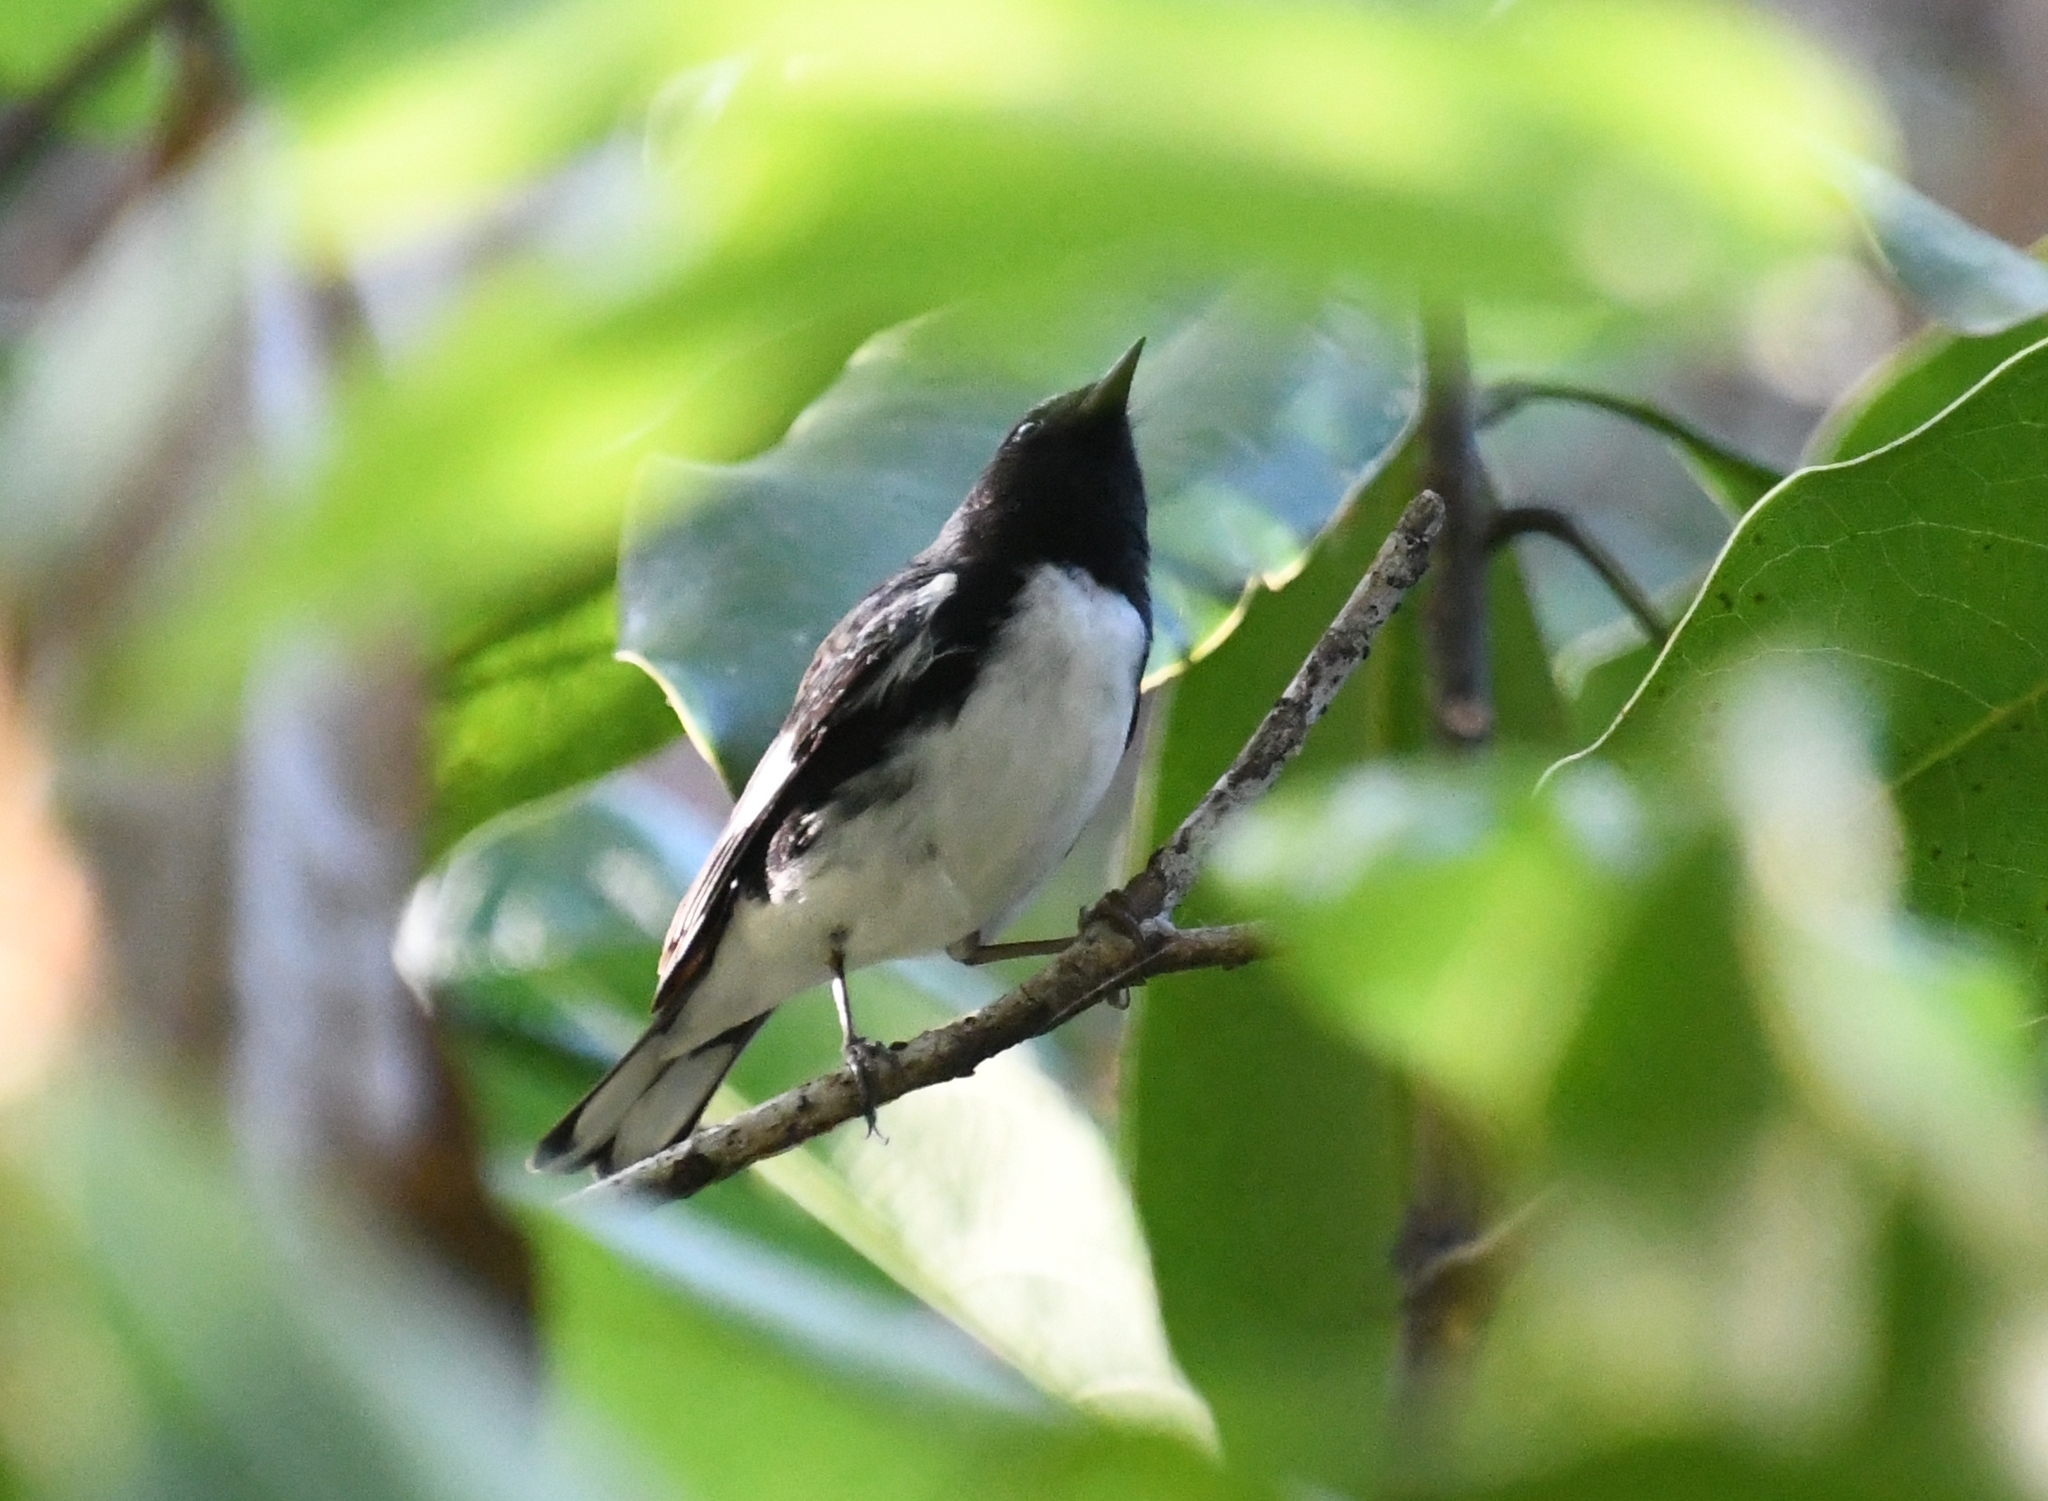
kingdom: Animalia
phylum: Chordata
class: Aves
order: Passeriformes
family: Parulidae
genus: Setophaga
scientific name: Setophaga caerulescens
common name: Black-throated blue warbler
